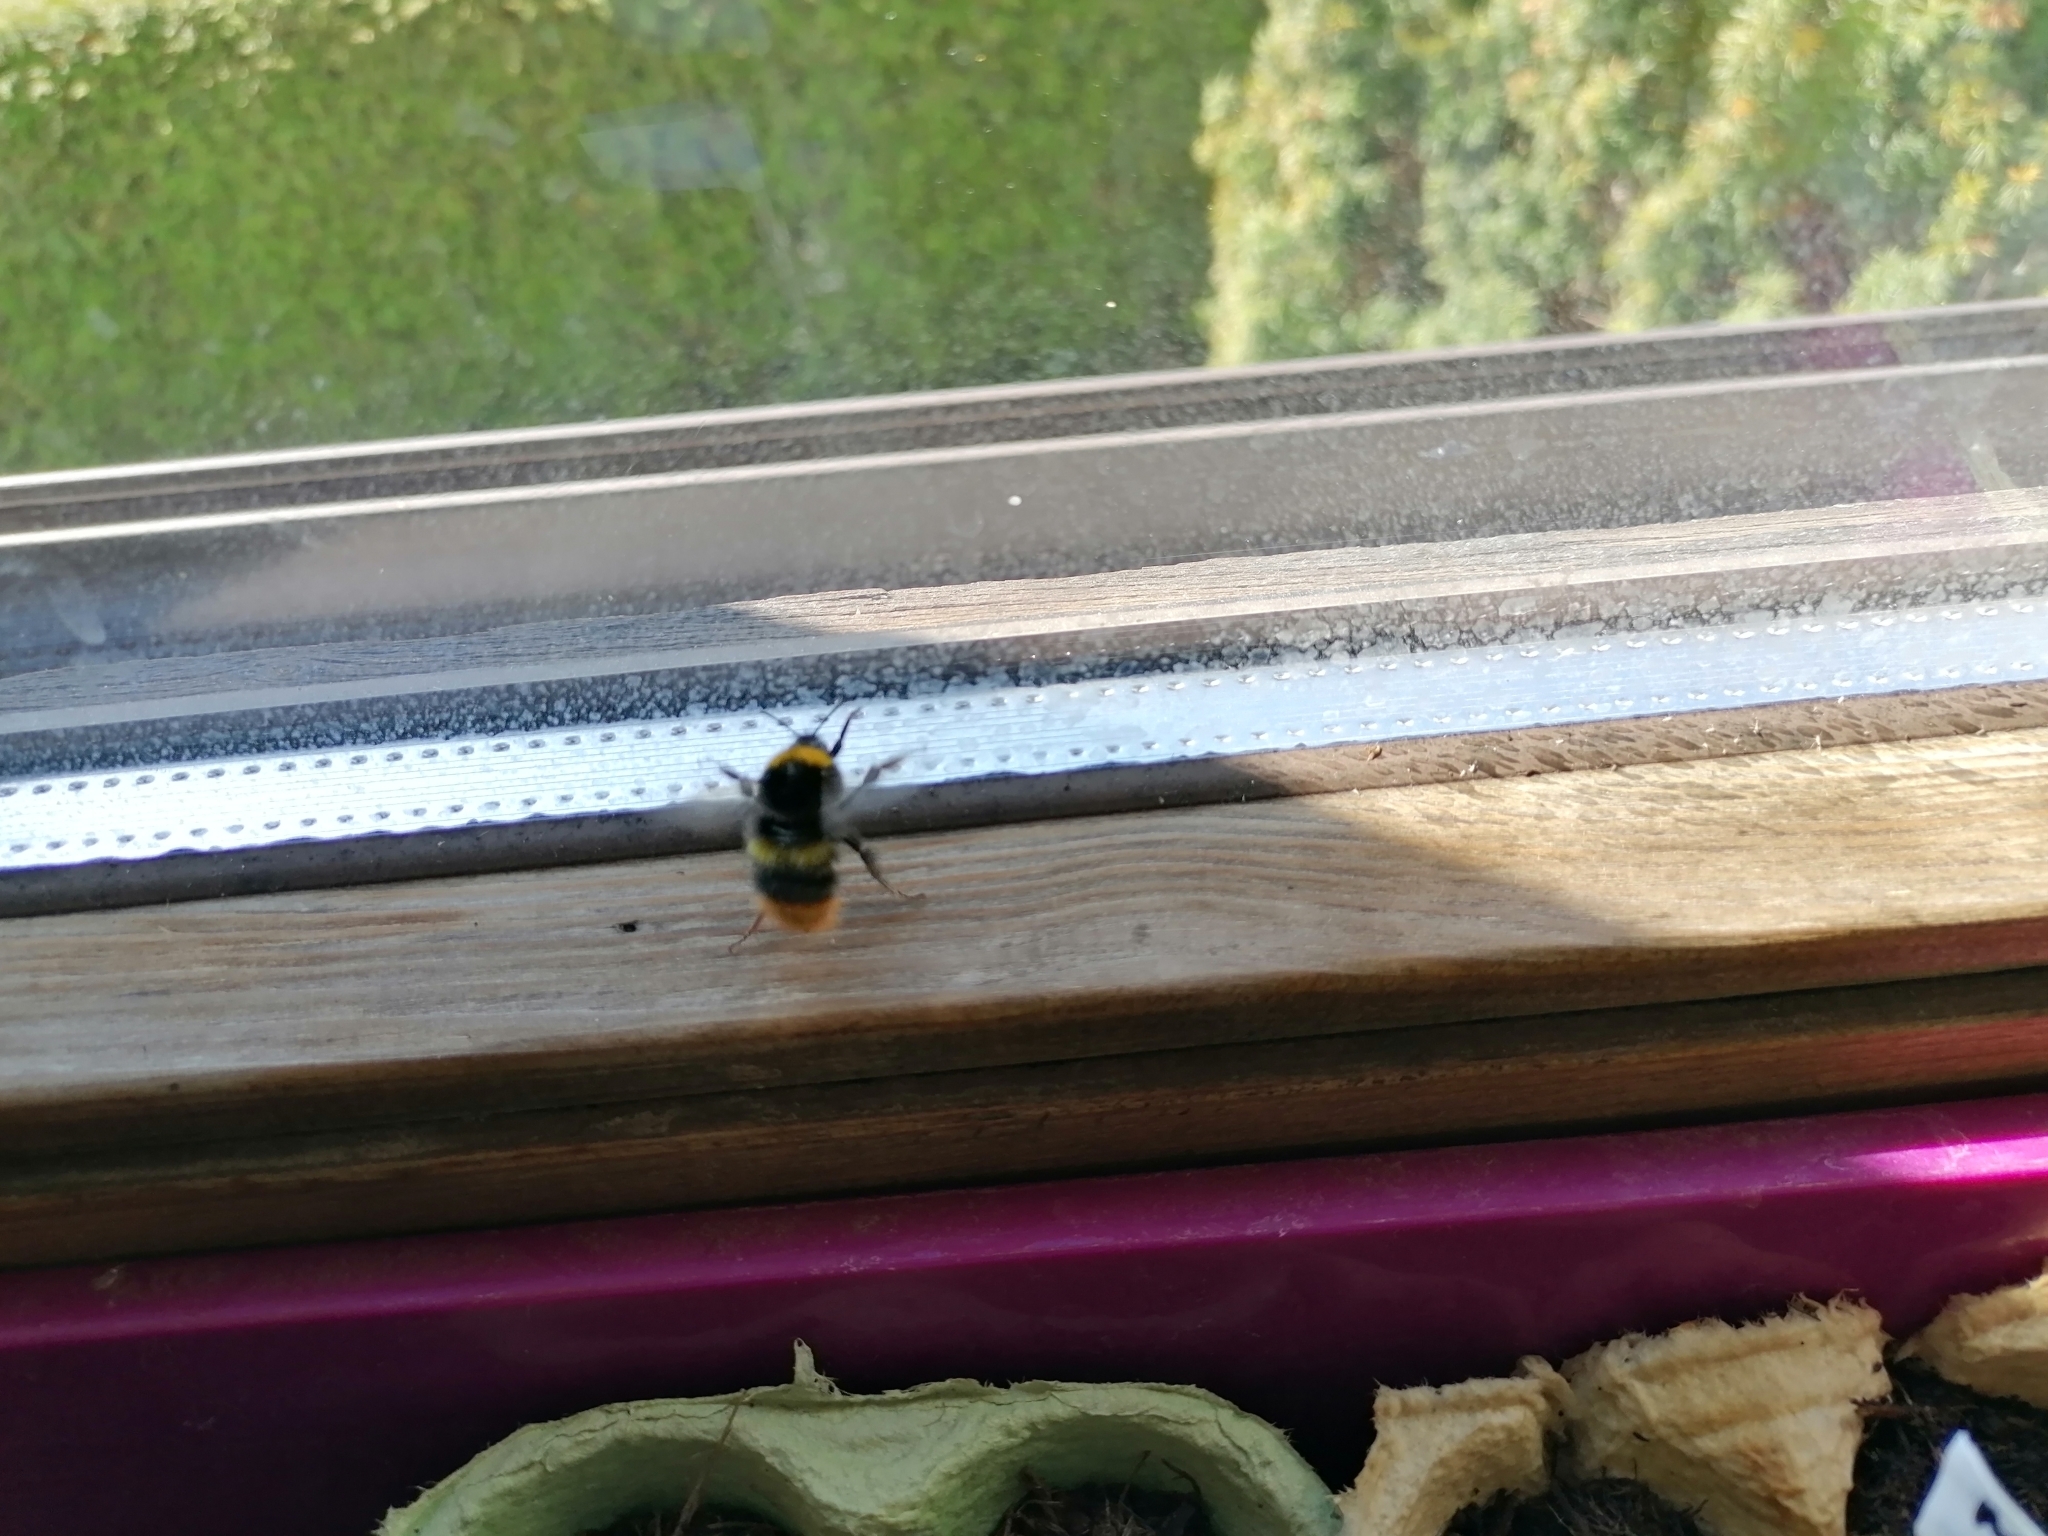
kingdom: Animalia
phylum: Arthropoda
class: Insecta
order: Hymenoptera
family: Apidae
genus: Bombus
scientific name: Bombus pratorum
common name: Early humble-bee
